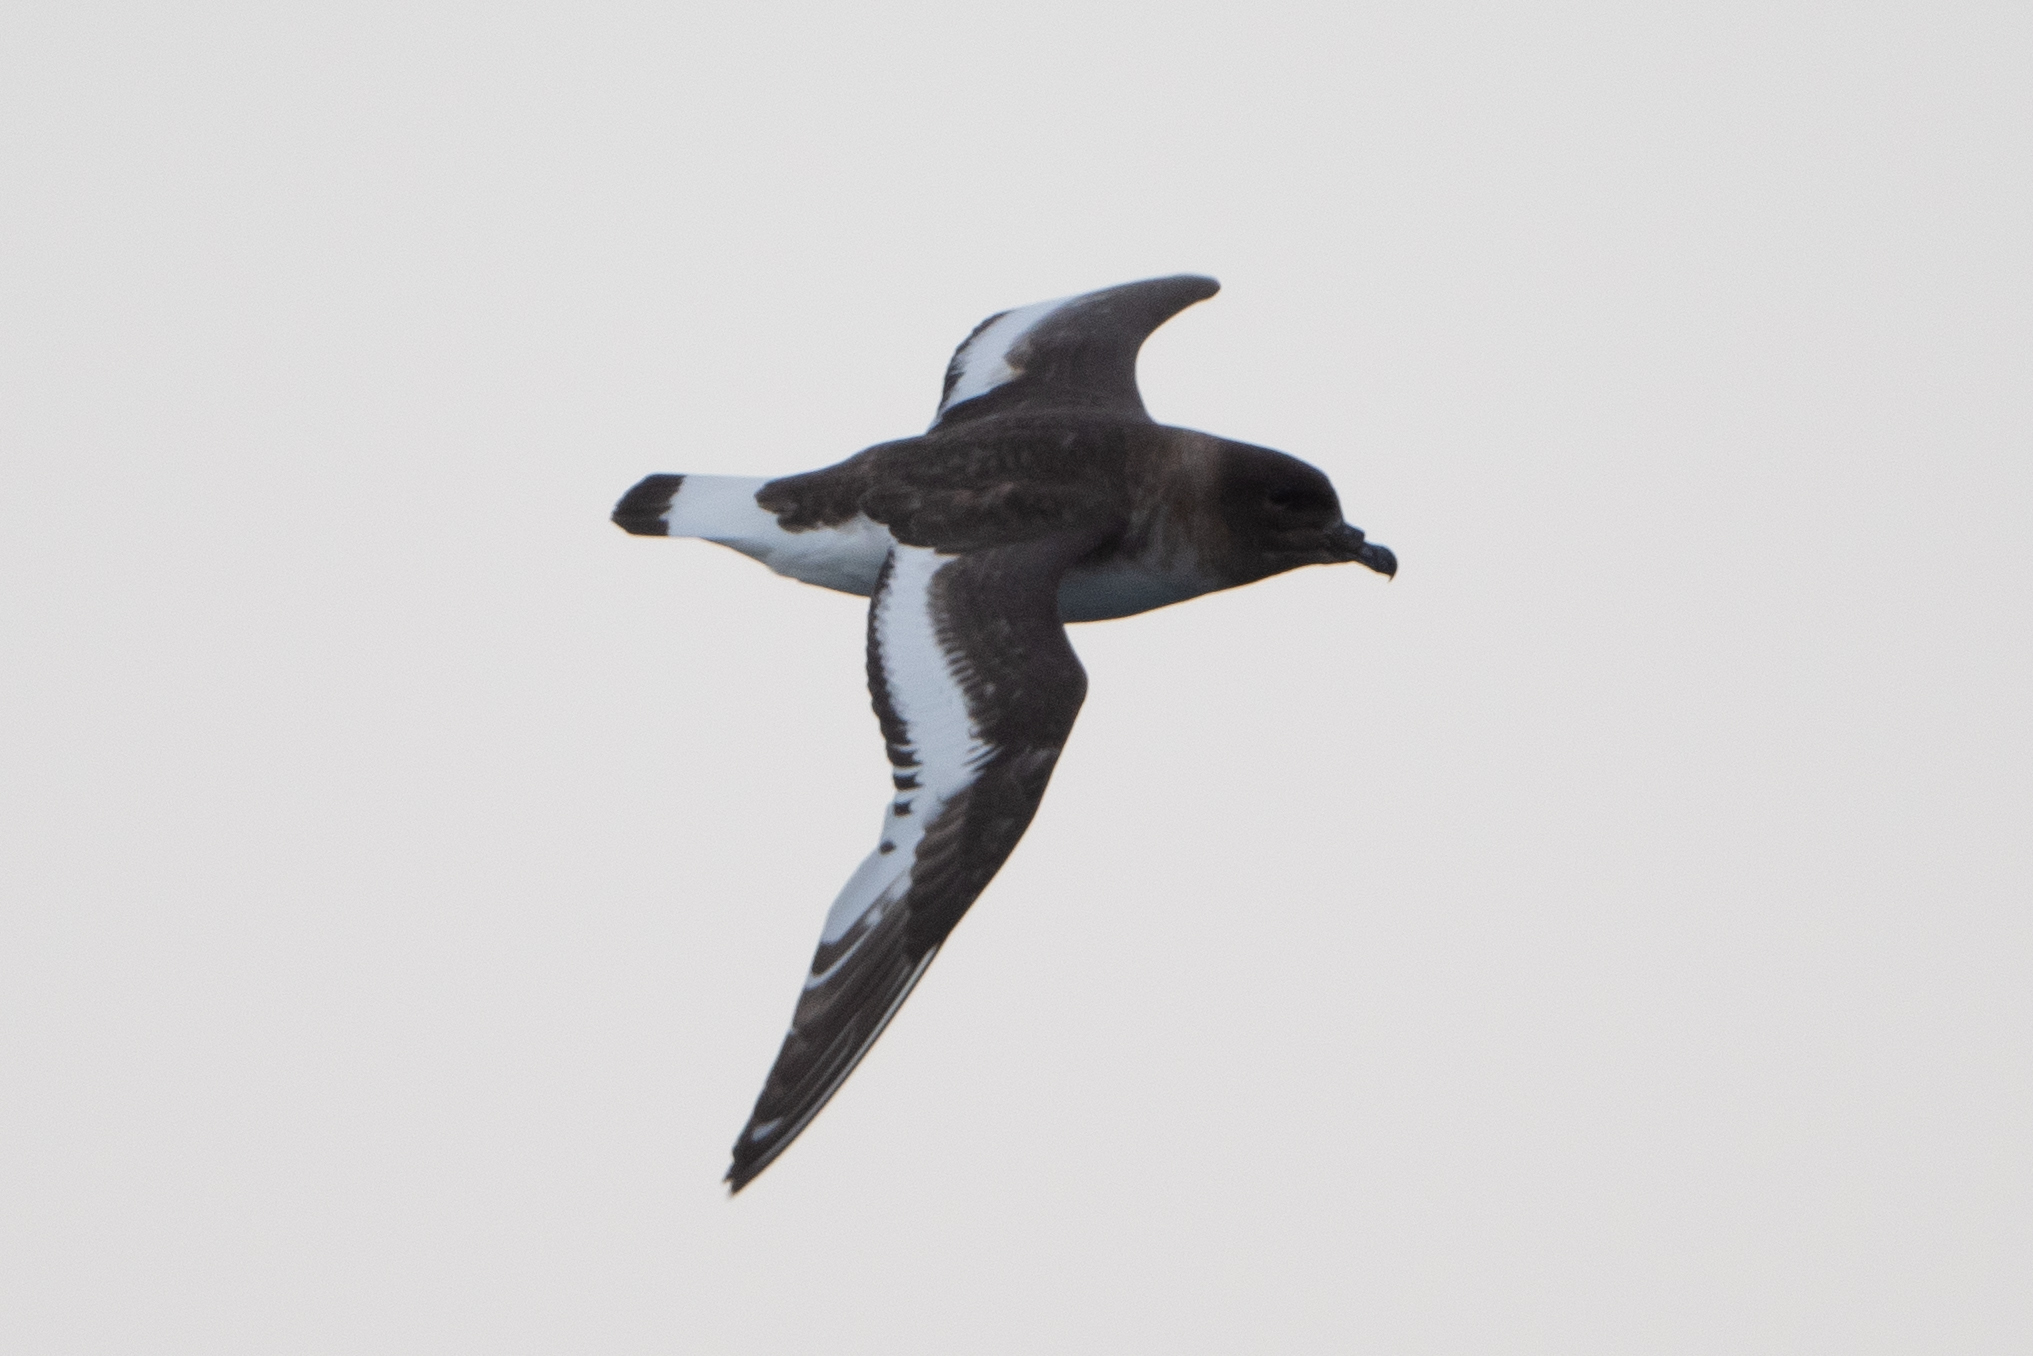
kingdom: Animalia
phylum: Chordata
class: Aves
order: Procellariiformes
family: Procellariidae
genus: Thalassoica
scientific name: Thalassoica antarctica
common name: Antarctic petrel
